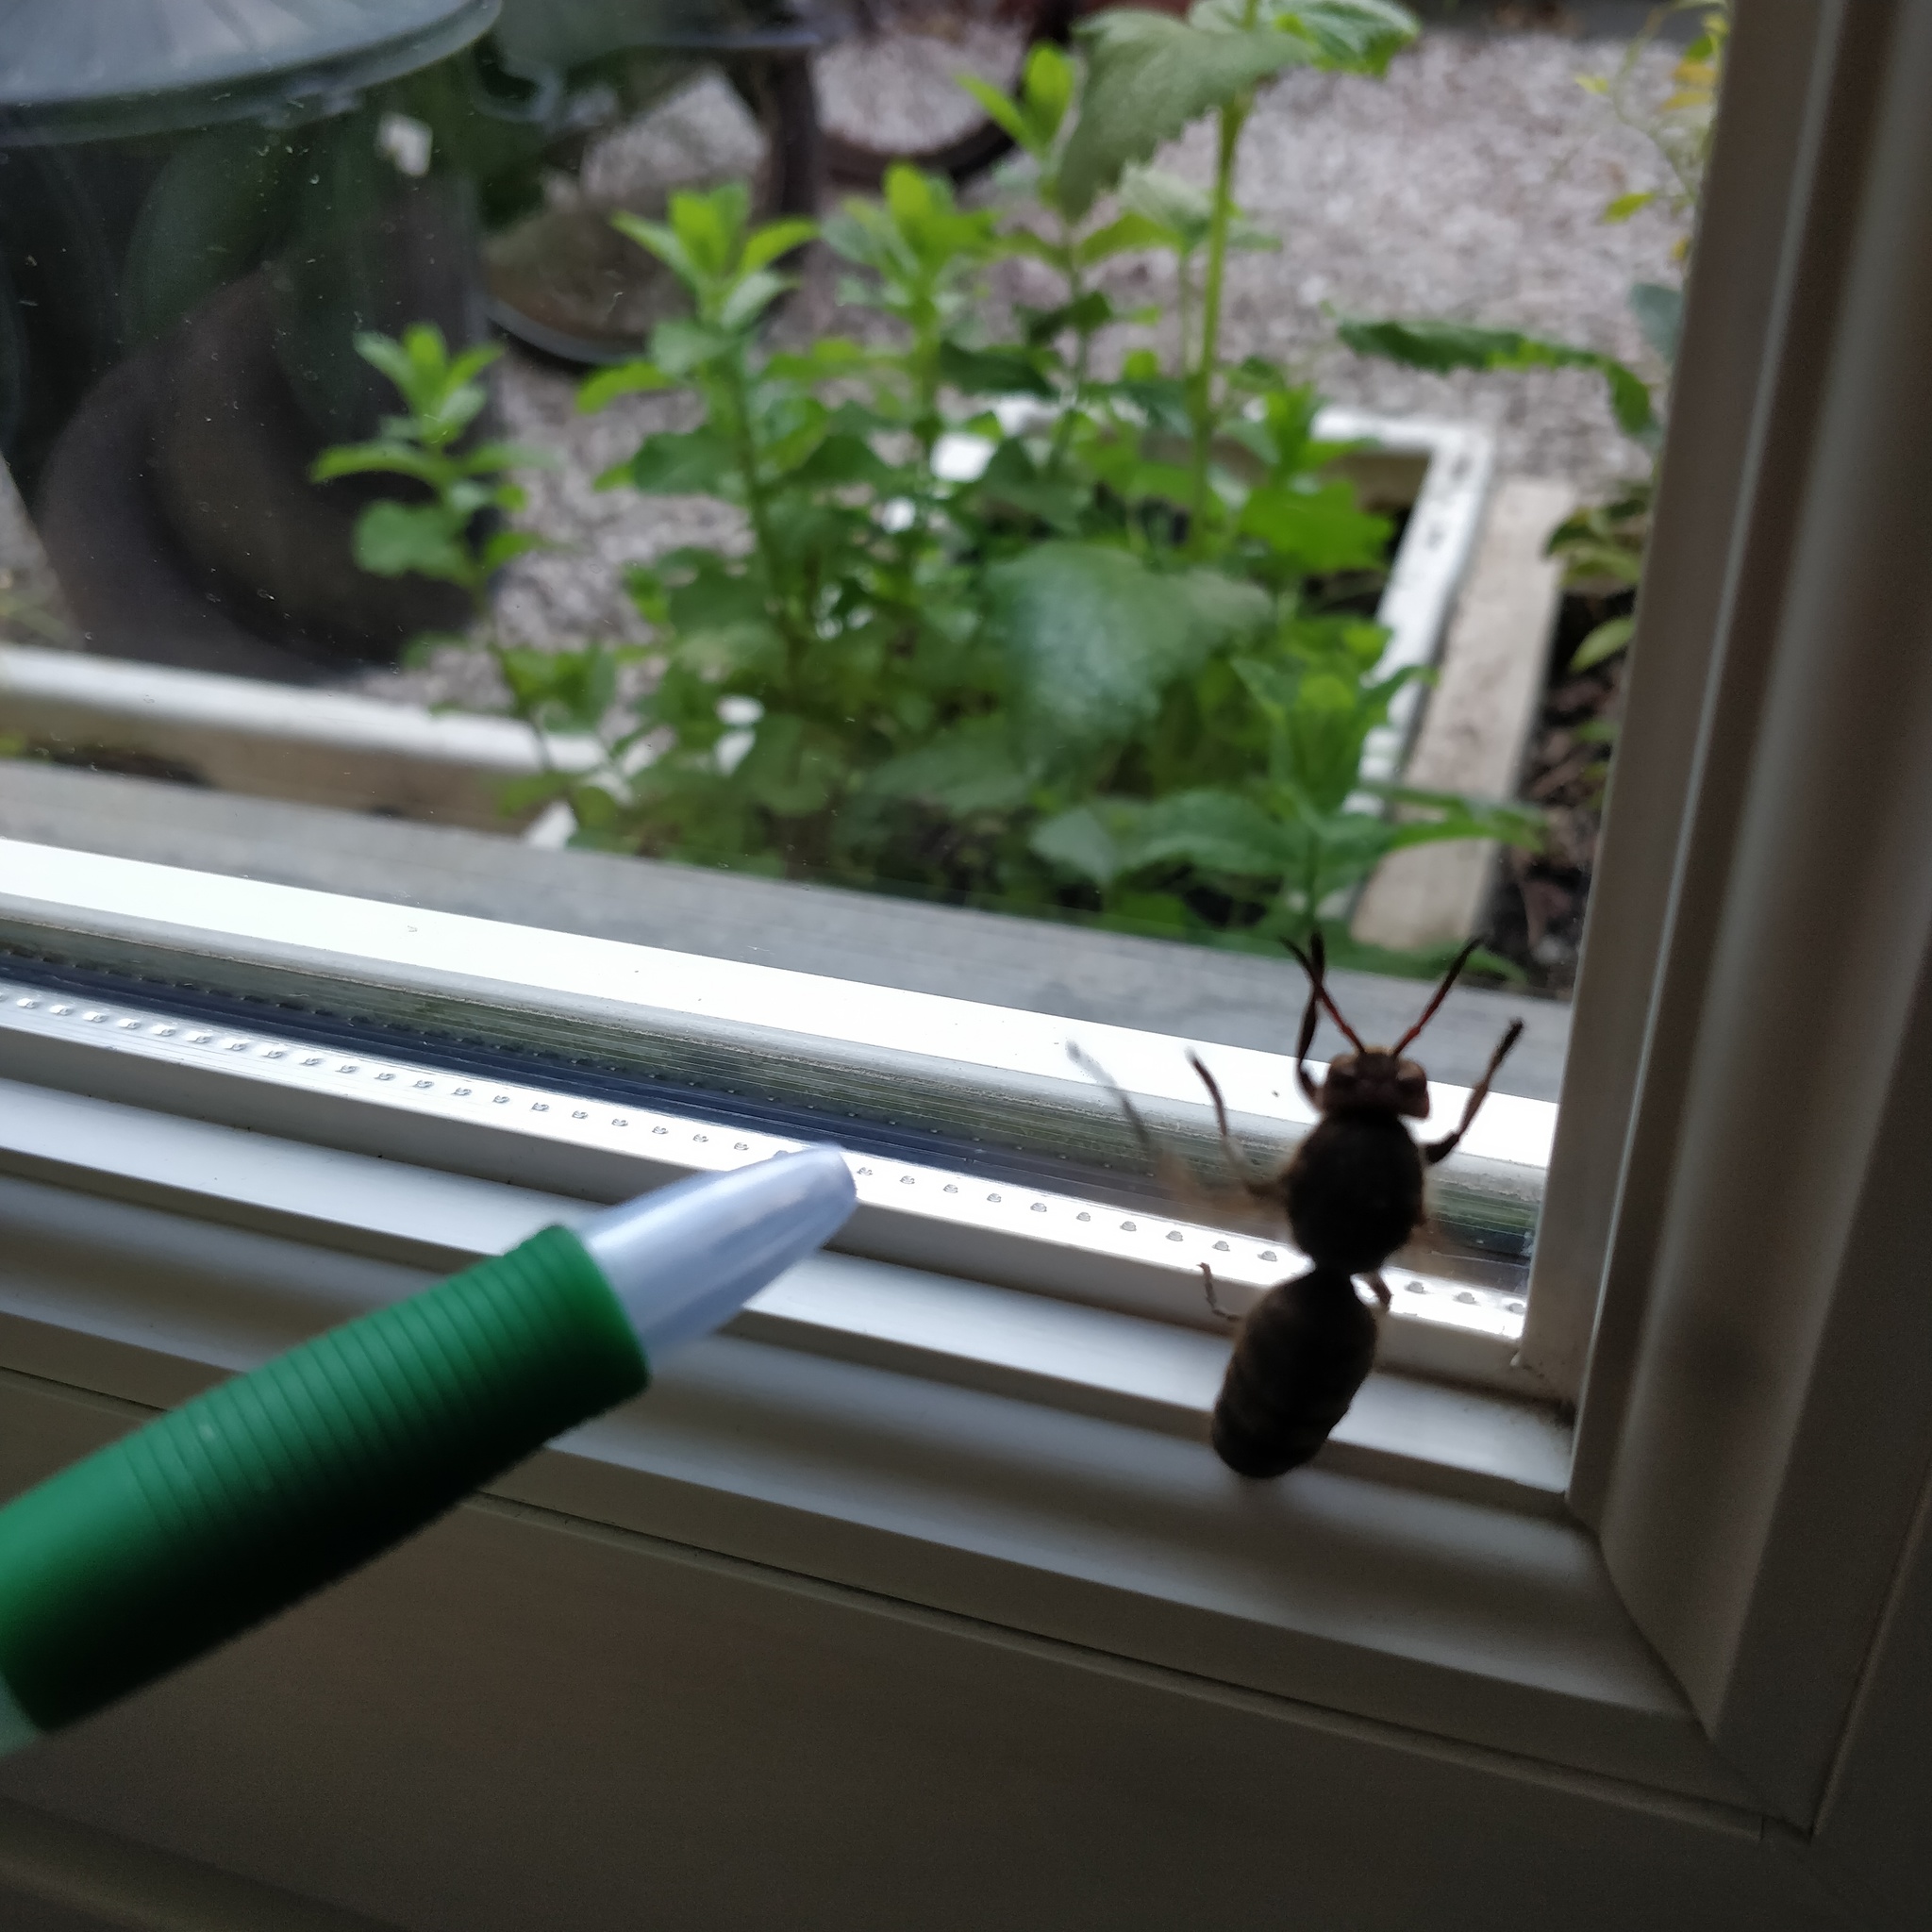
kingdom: Animalia
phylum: Arthropoda
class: Insecta
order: Hymenoptera
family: Vespidae
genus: Vespa
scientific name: Vespa crabro
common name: Hornet
